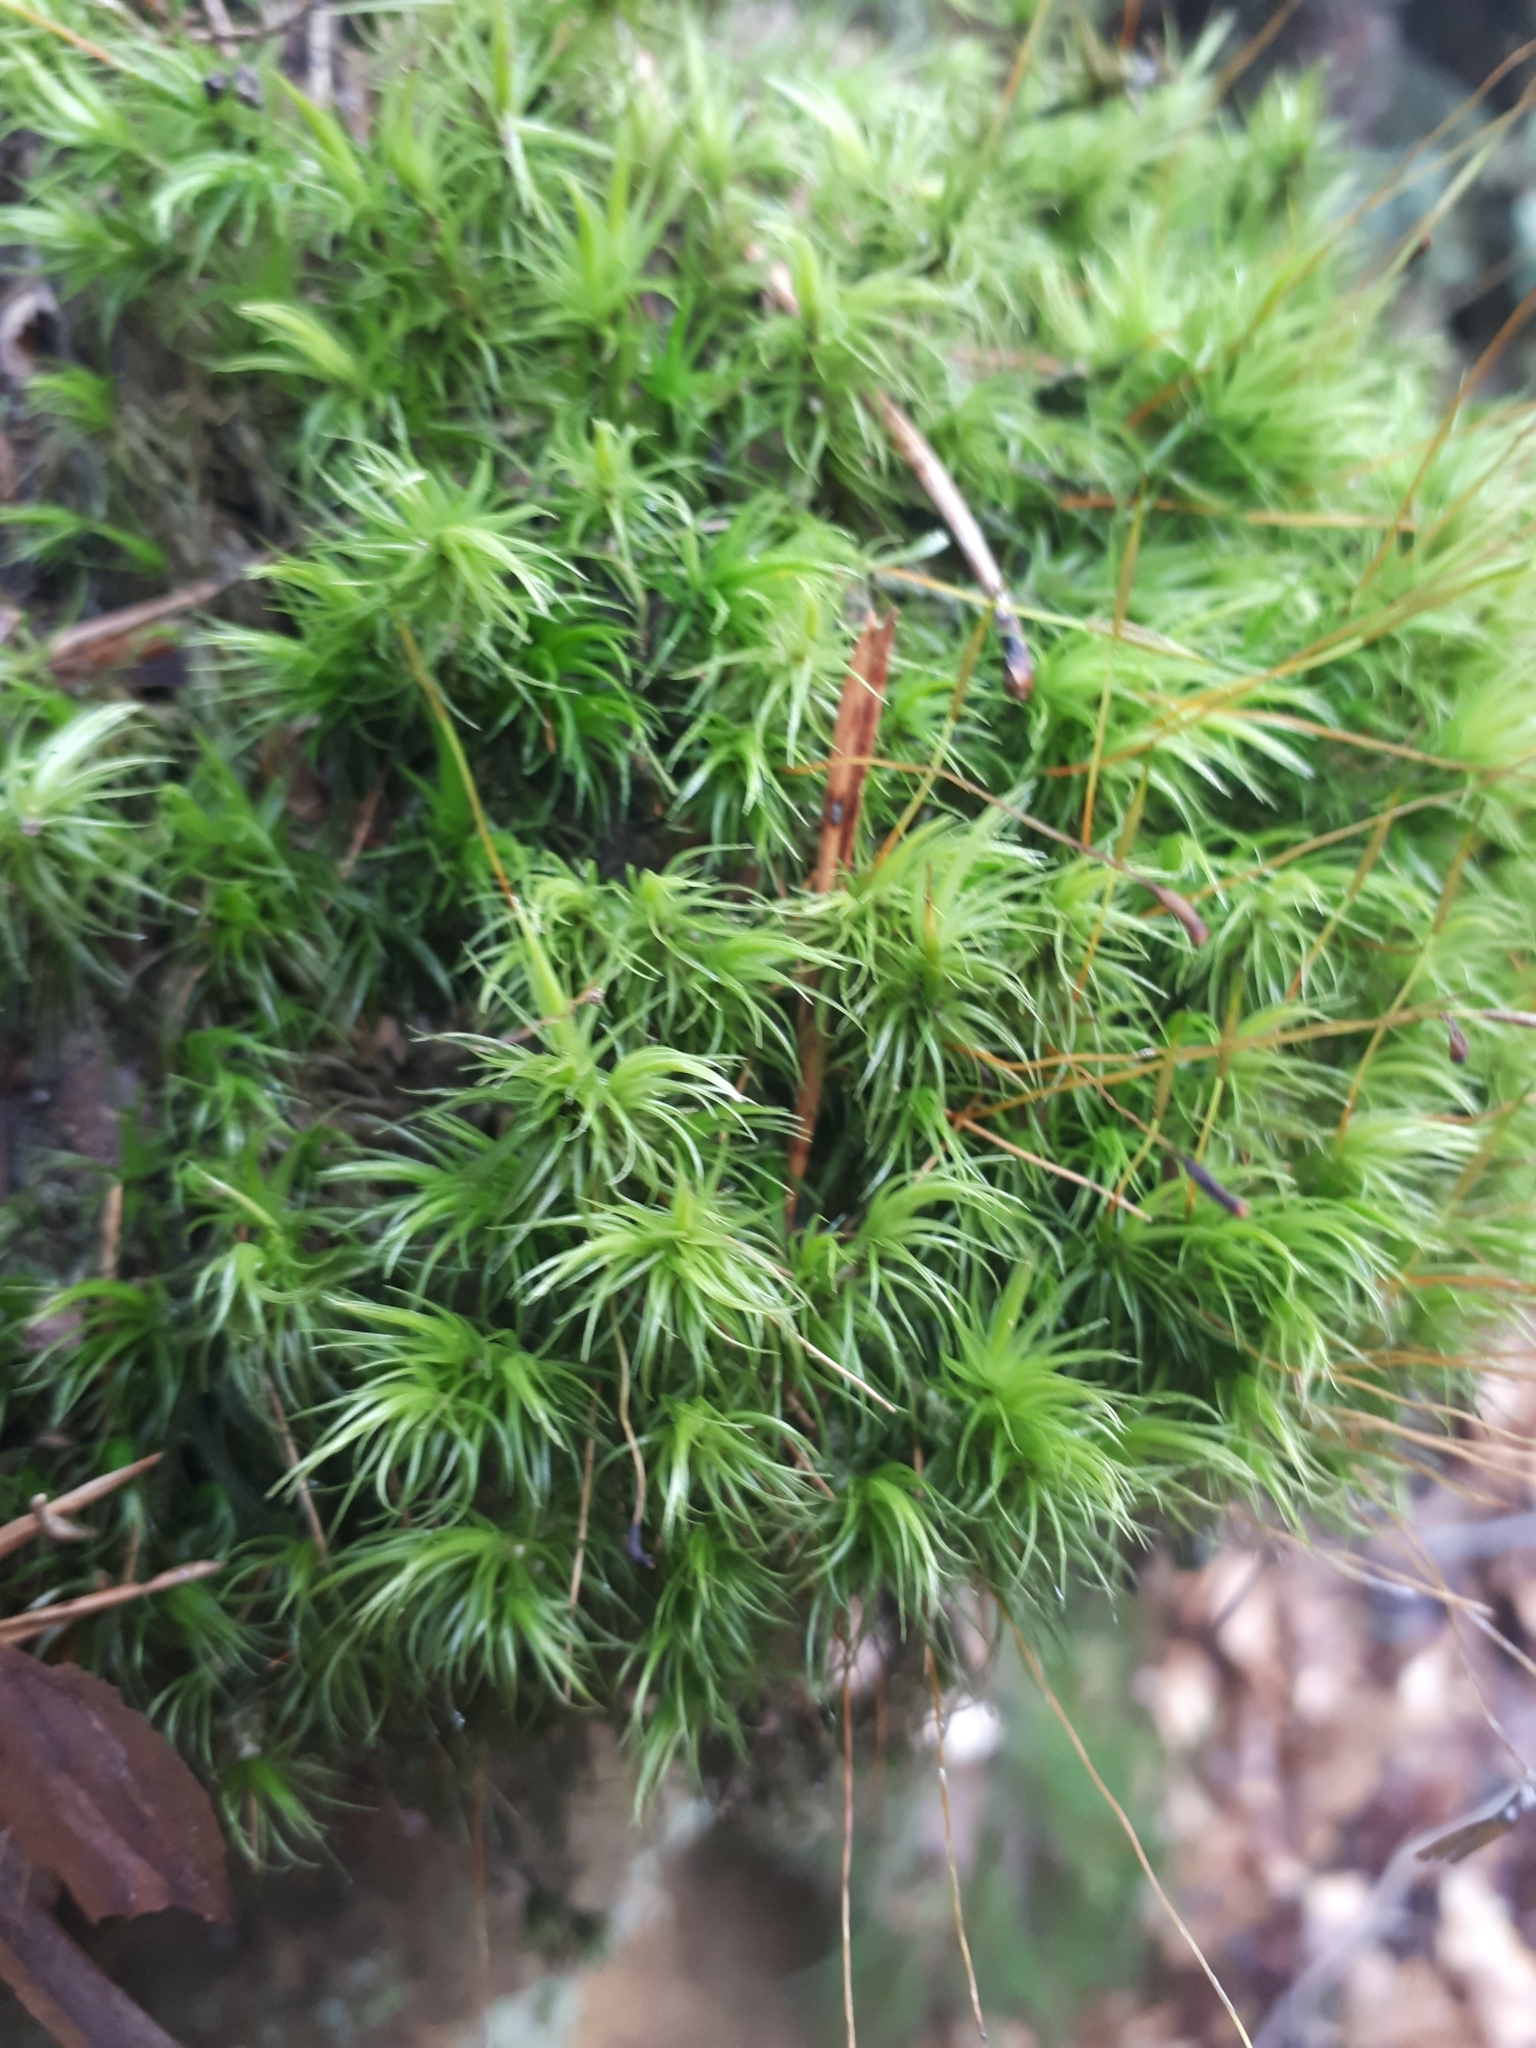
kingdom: Plantae
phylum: Bryophyta
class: Bryopsida
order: Dicranales
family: Dicranaceae
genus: Dicranum
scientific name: Dicranum scoparium
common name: Broom fork-moss
